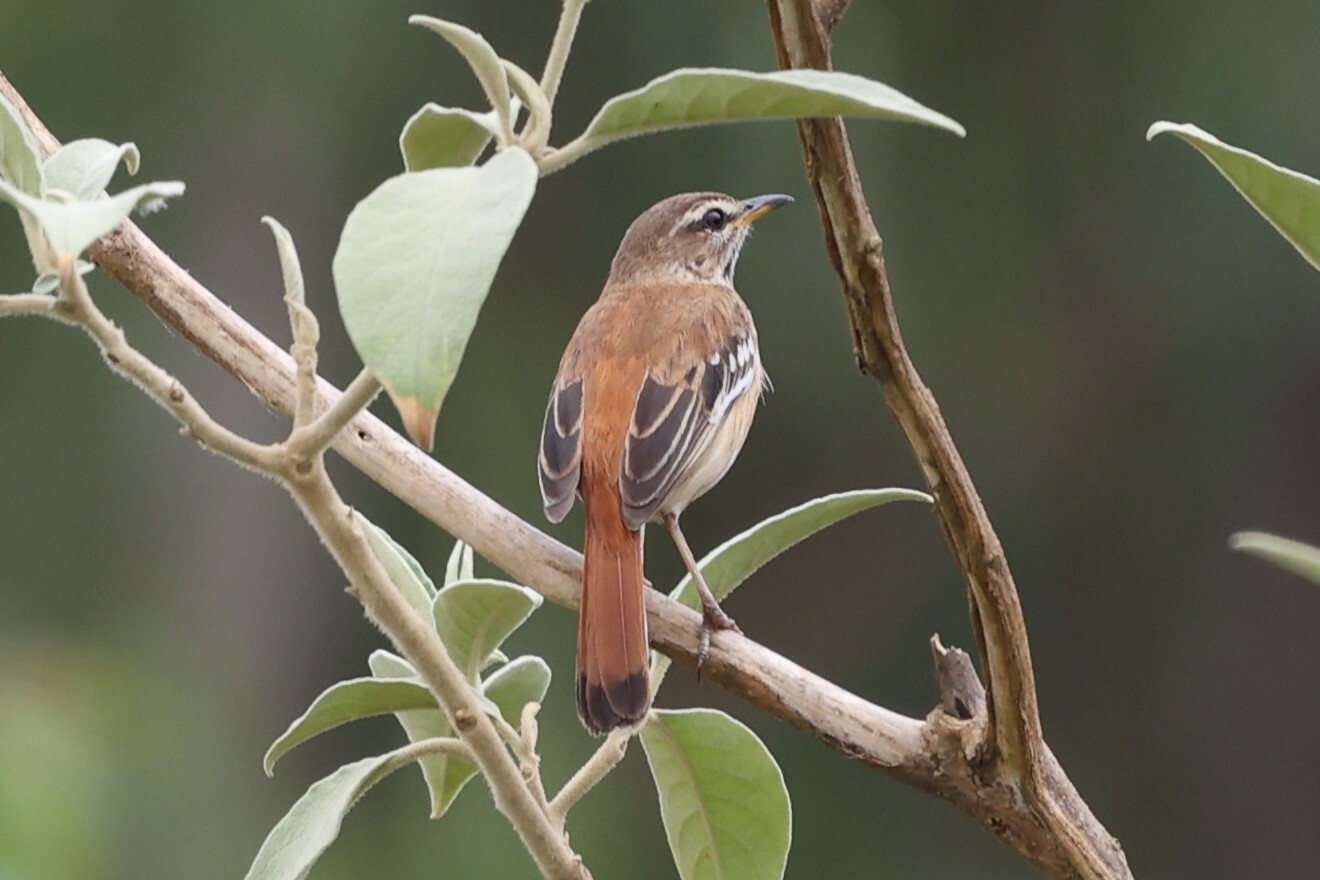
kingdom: Animalia
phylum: Chordata
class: Aves
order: Passeriformes
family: Muscicapidae
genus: Erythropygia
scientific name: Erythropygia leucophrys
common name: White-browed scrub robin
